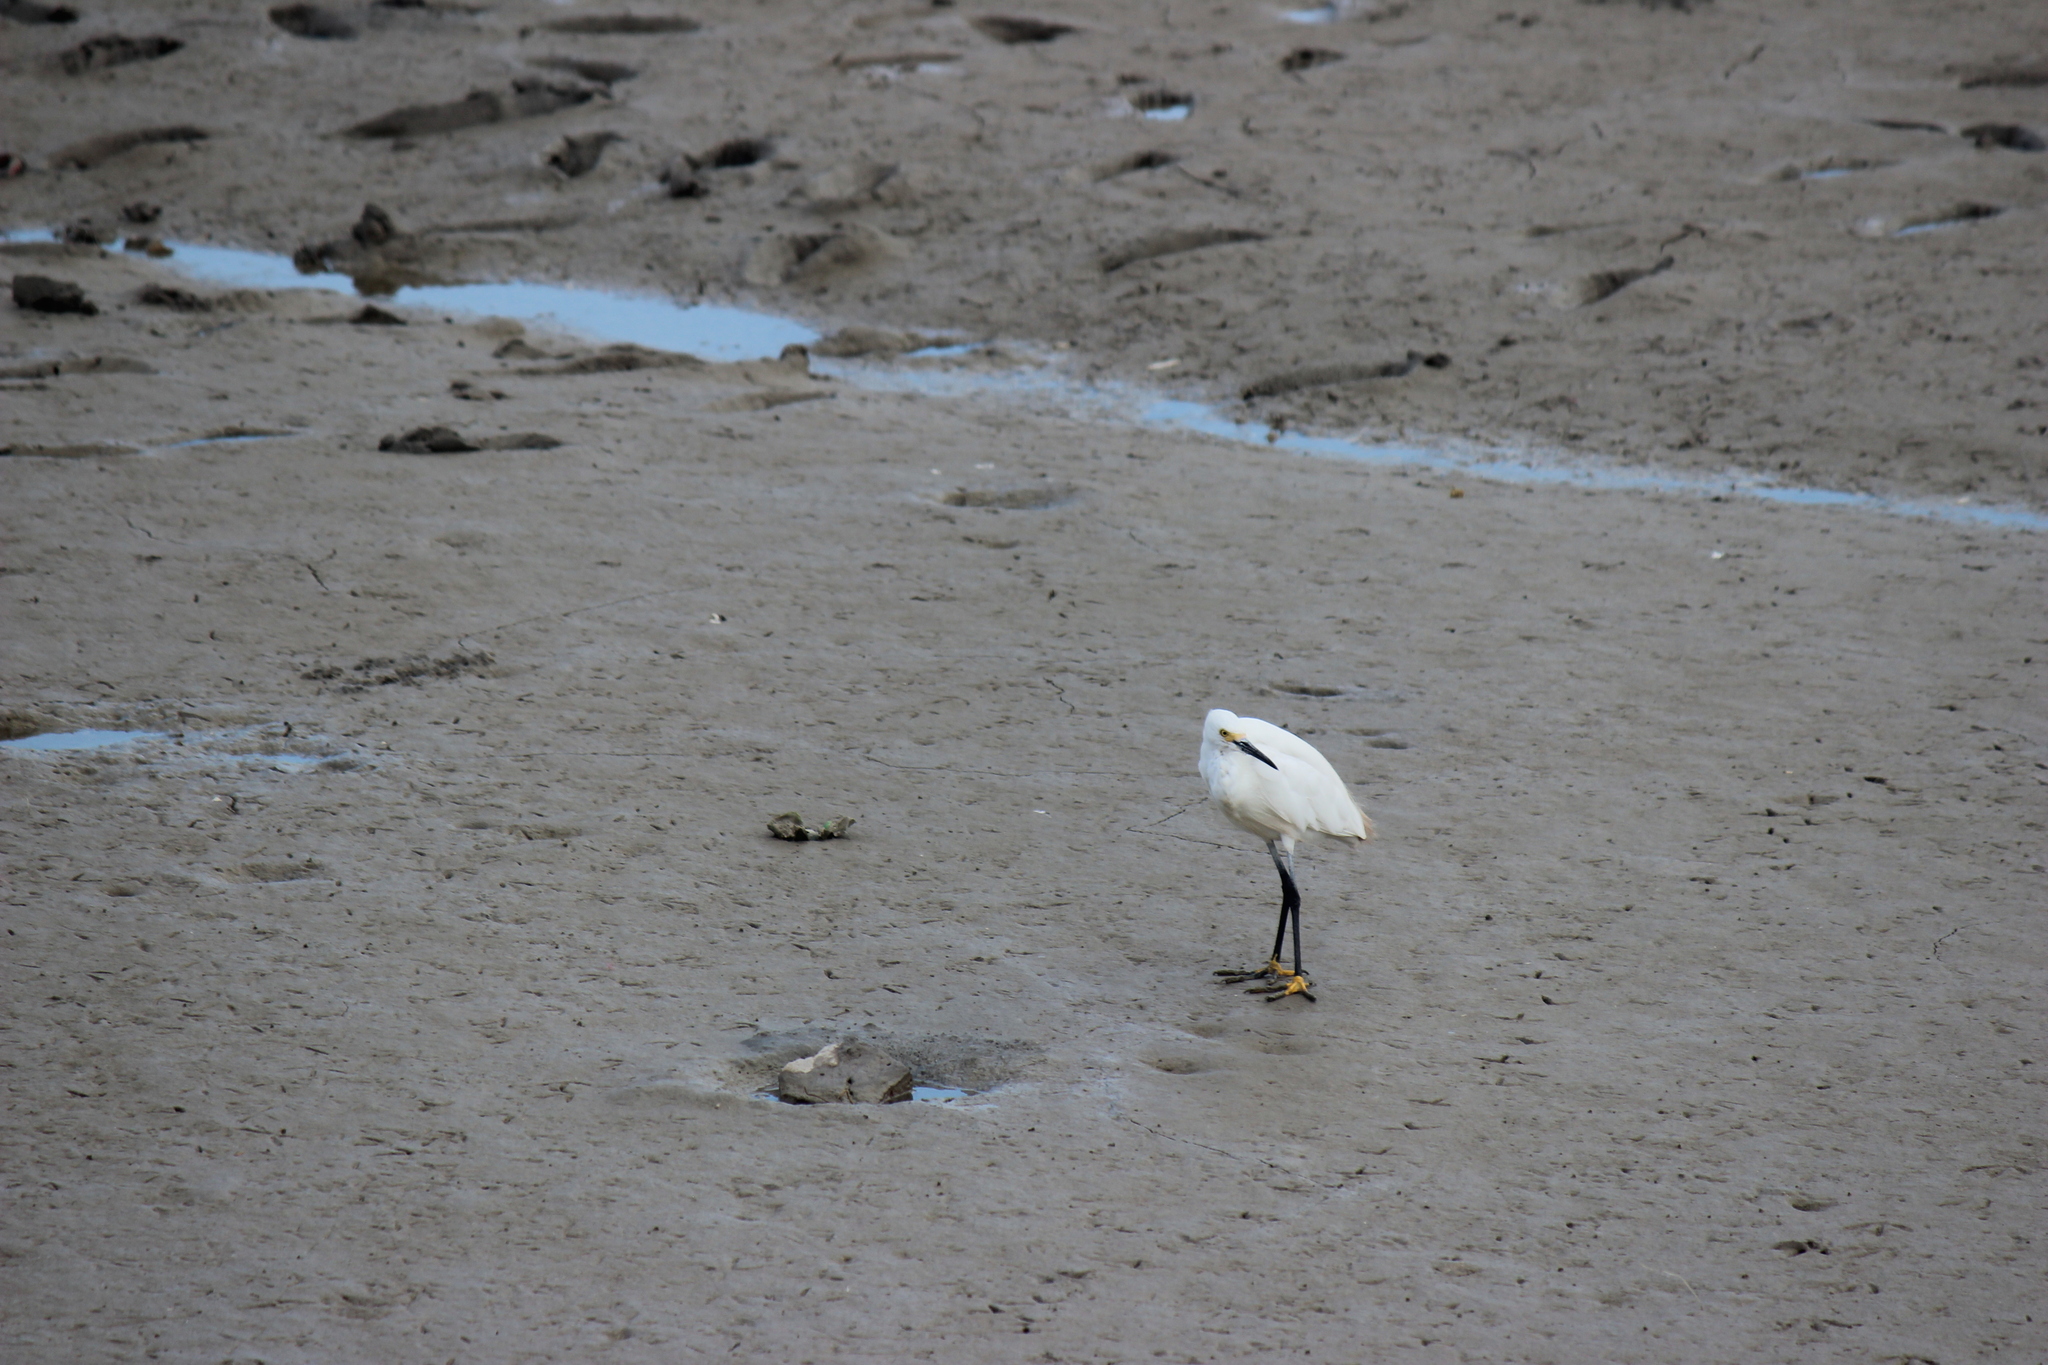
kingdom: Animalia
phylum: Chordata
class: Aves
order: Pelecaniformes
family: Ardeidae
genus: Egretta
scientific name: Egretta thula
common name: Snowy egret
